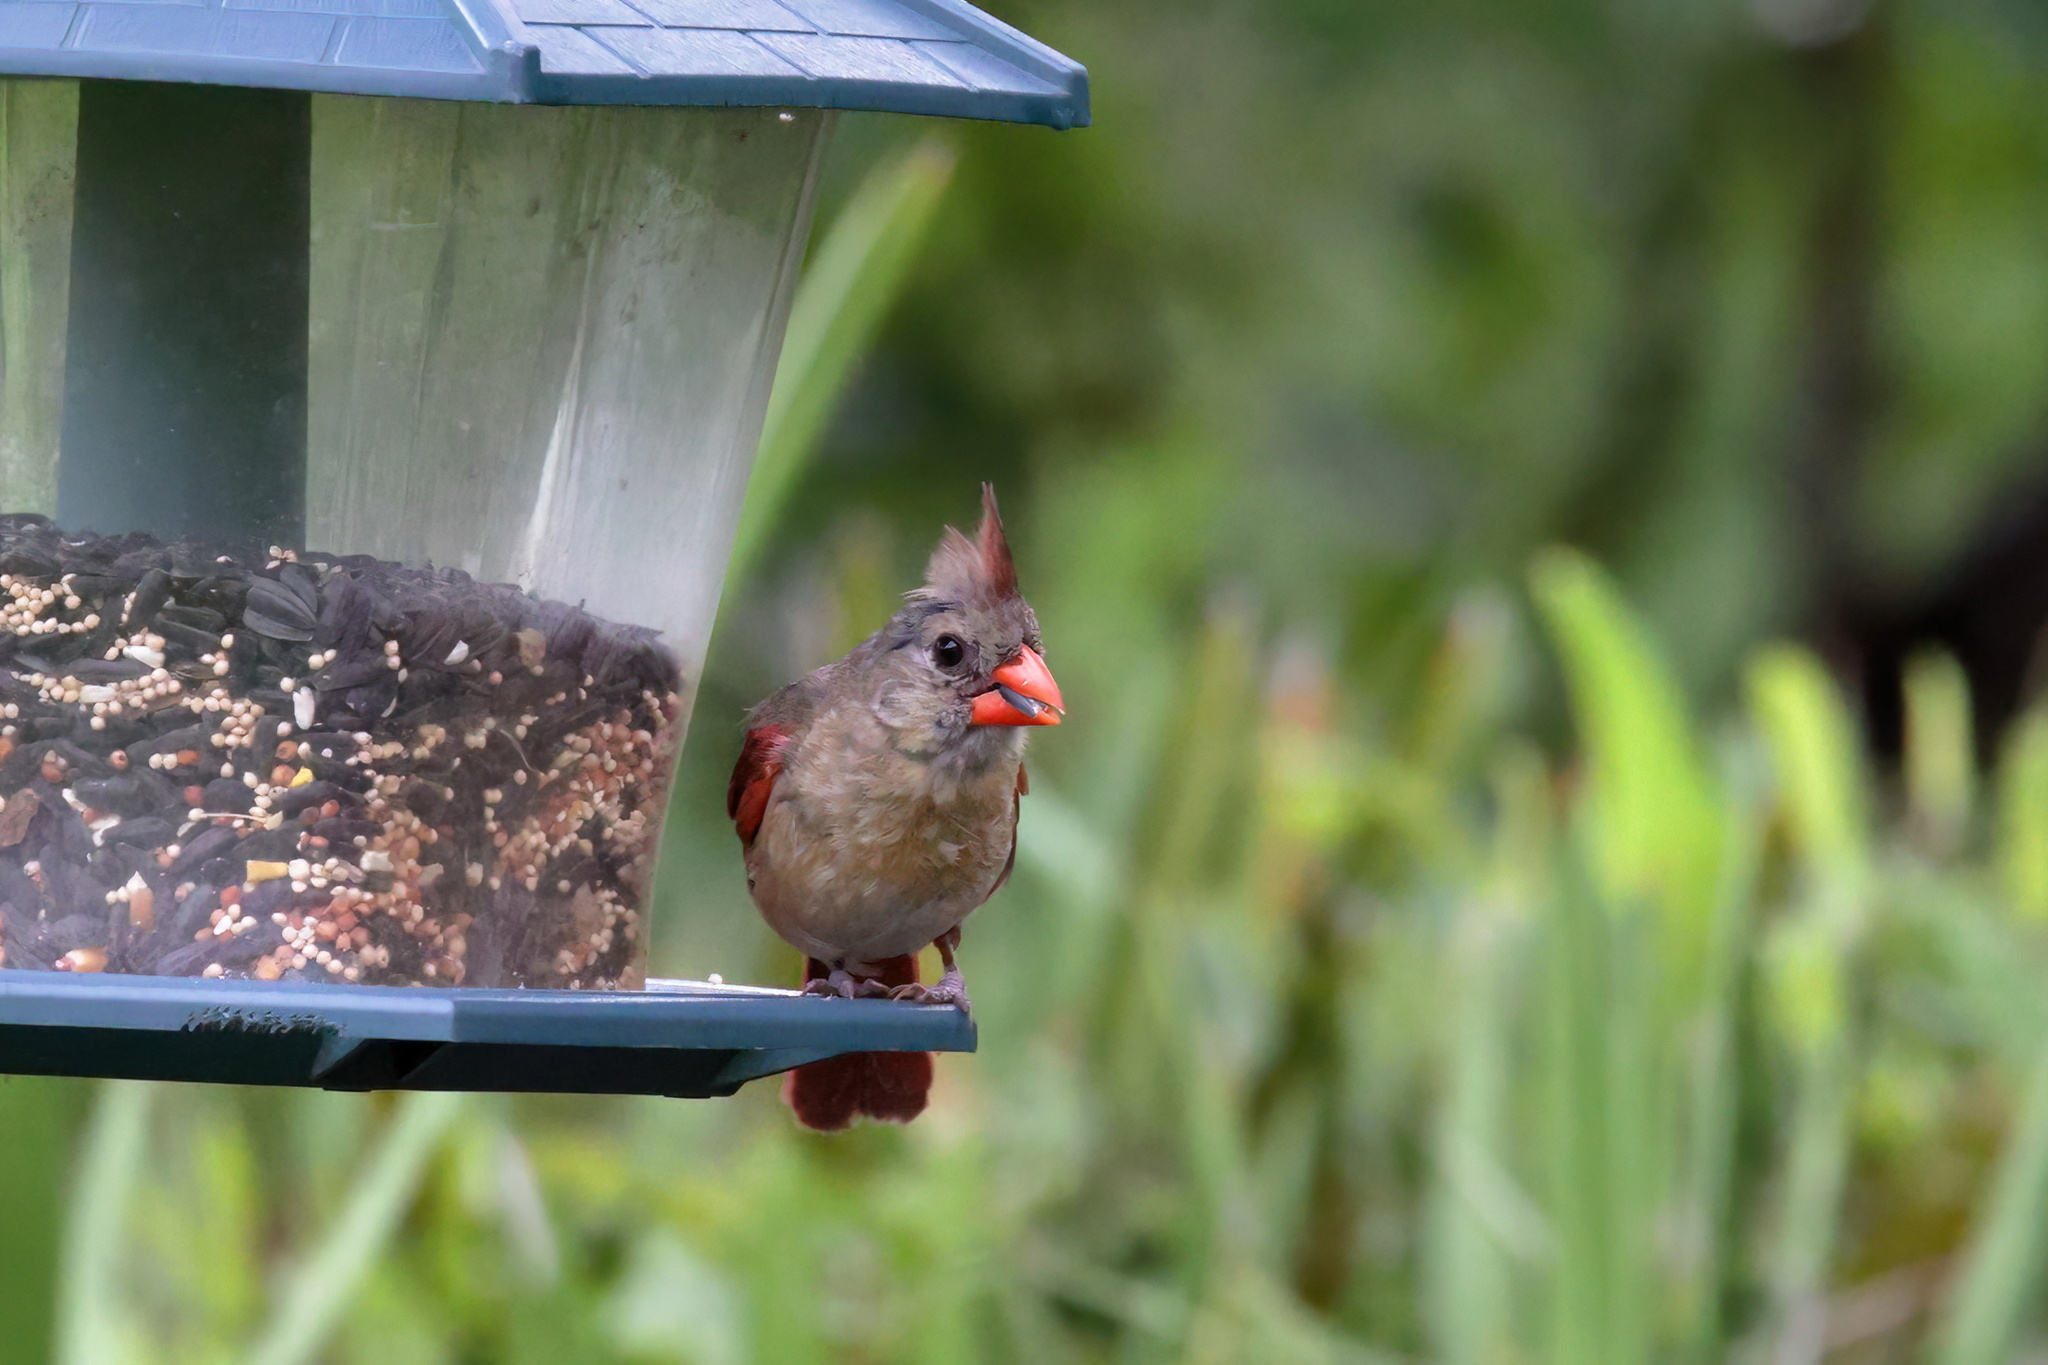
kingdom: Animalia
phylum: Chordata
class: Aves
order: Passeriformes
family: Cardinalidae
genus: Cardinalis
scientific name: Cardinalis cardinalis
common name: Northern cardinal
